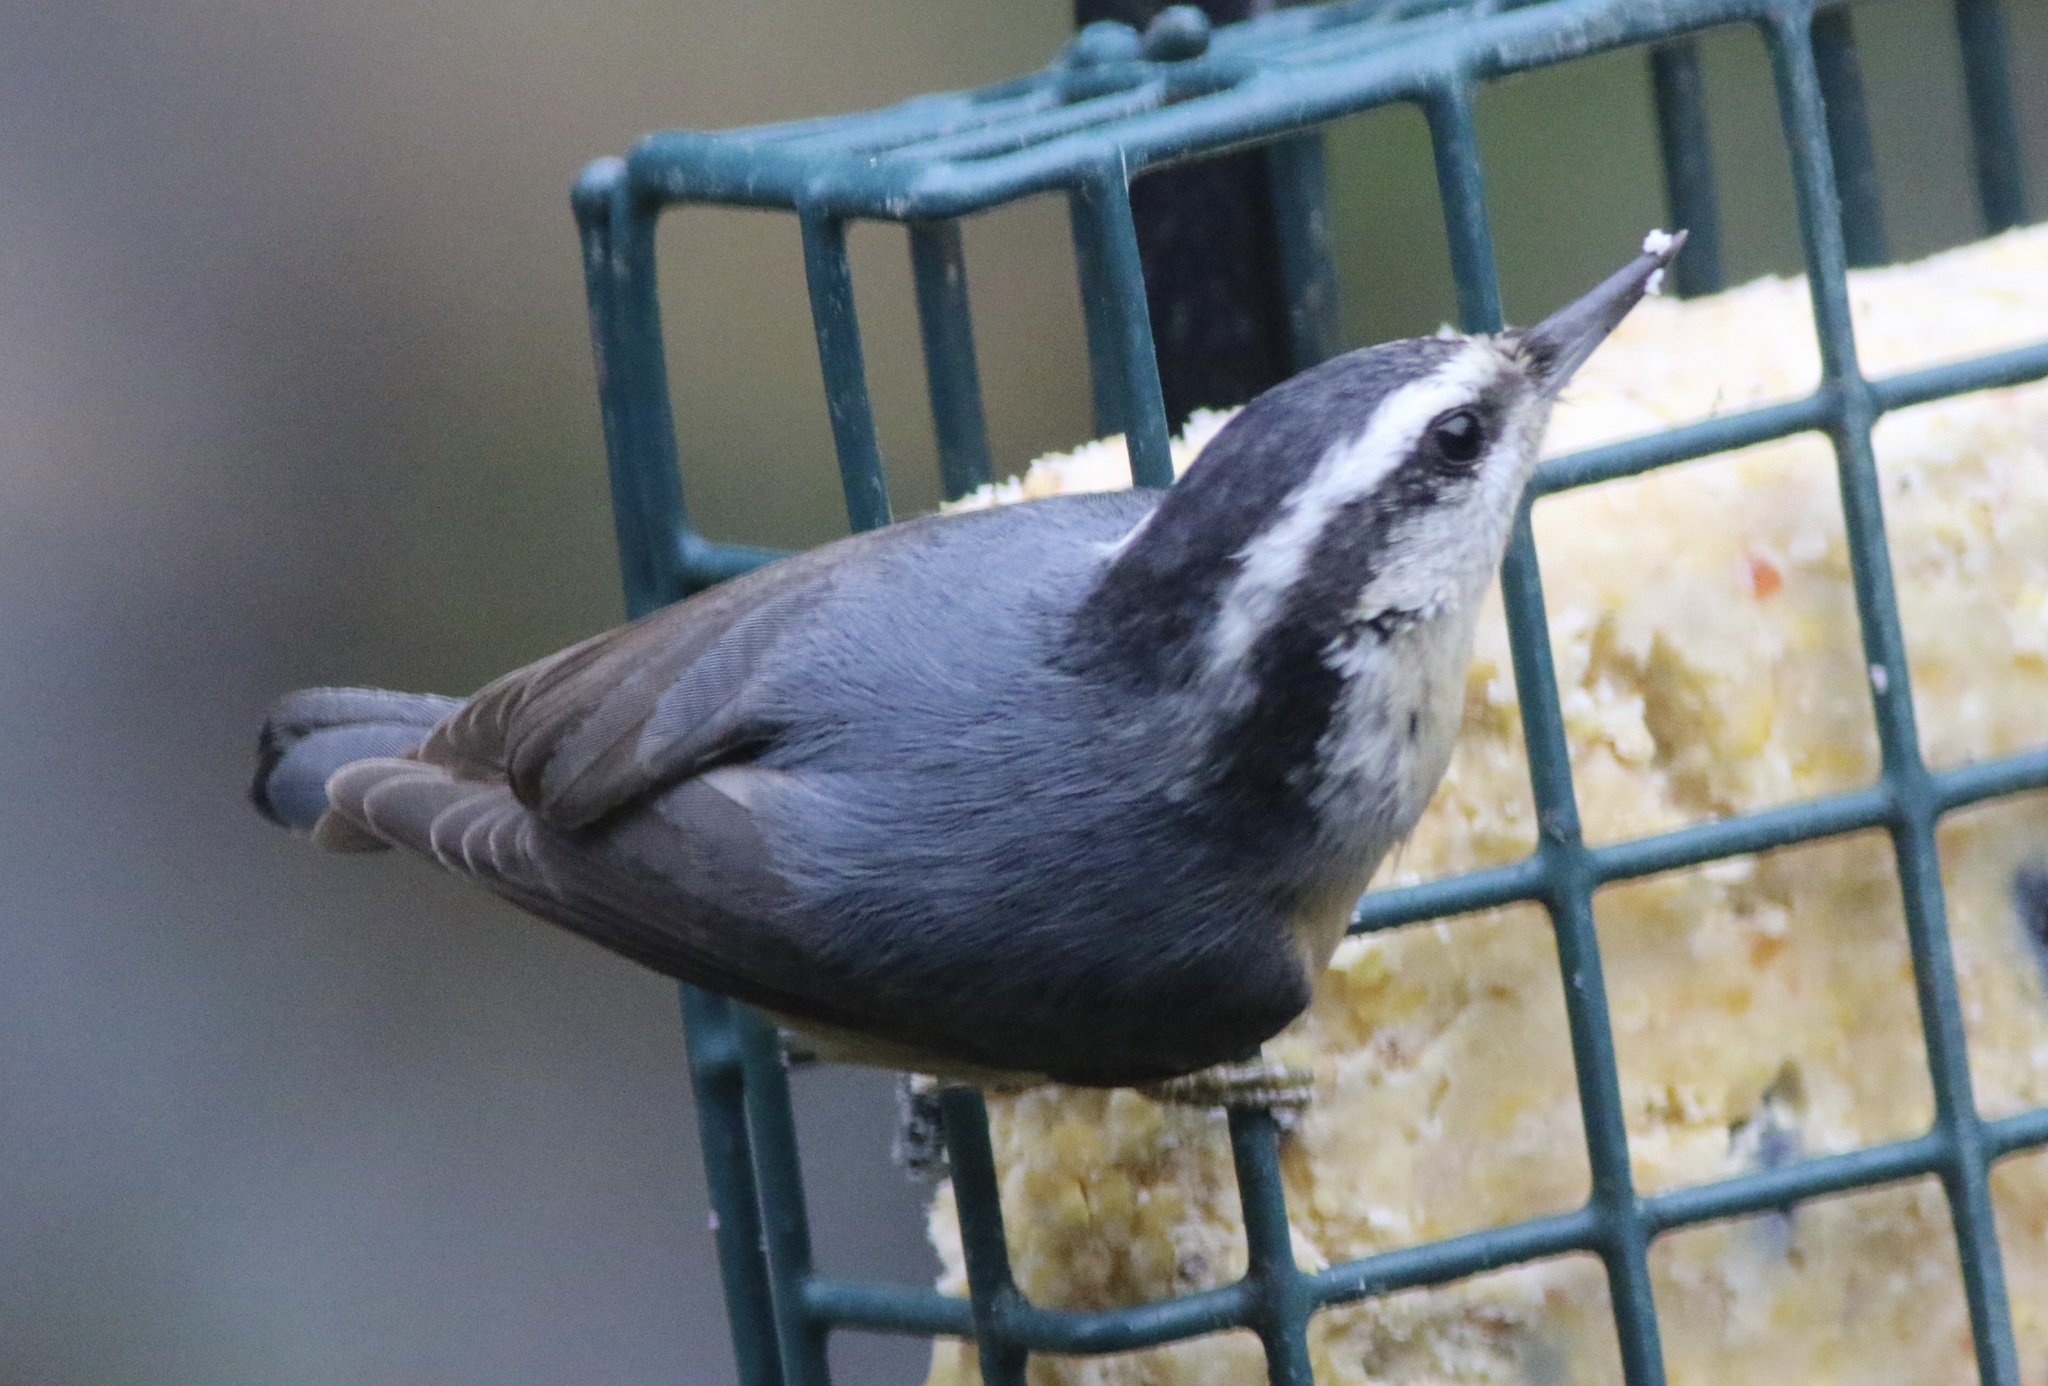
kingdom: Animalia
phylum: Chordata
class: Aves
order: Passeriformes
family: Sittidae
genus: Sitta
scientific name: Sitta canadensis
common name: Red-breasted nuthatch
